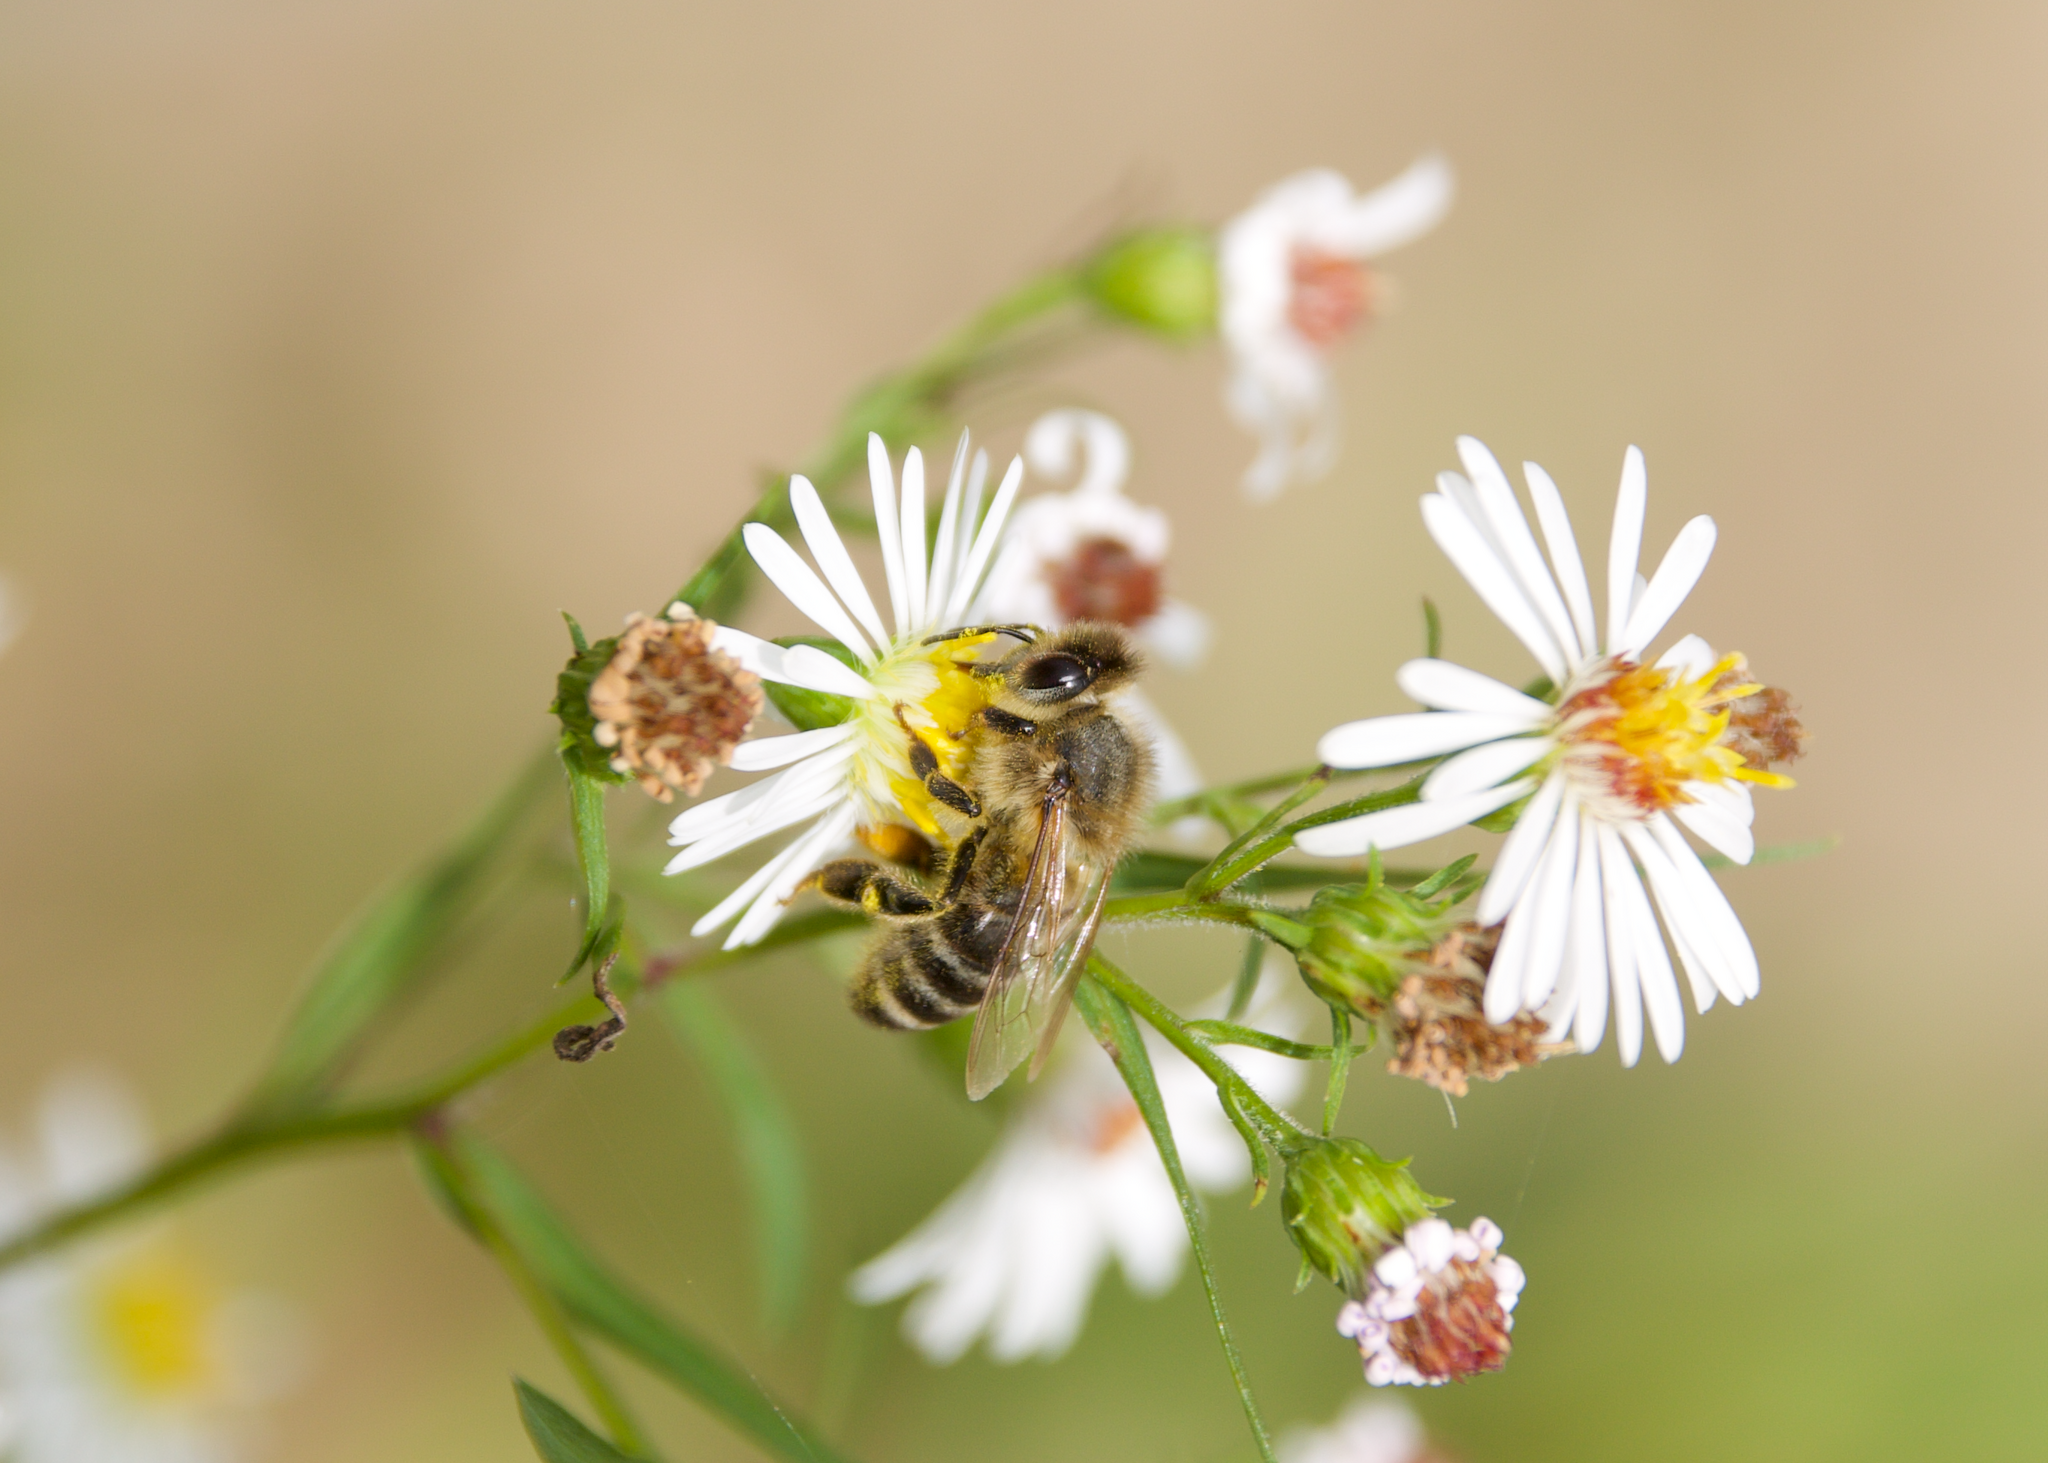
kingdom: Animalia
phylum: Arthropoda
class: Insecta
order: Hymenoptera
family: Apidae
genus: Apis
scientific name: Apis mellifera
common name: Honey bee
